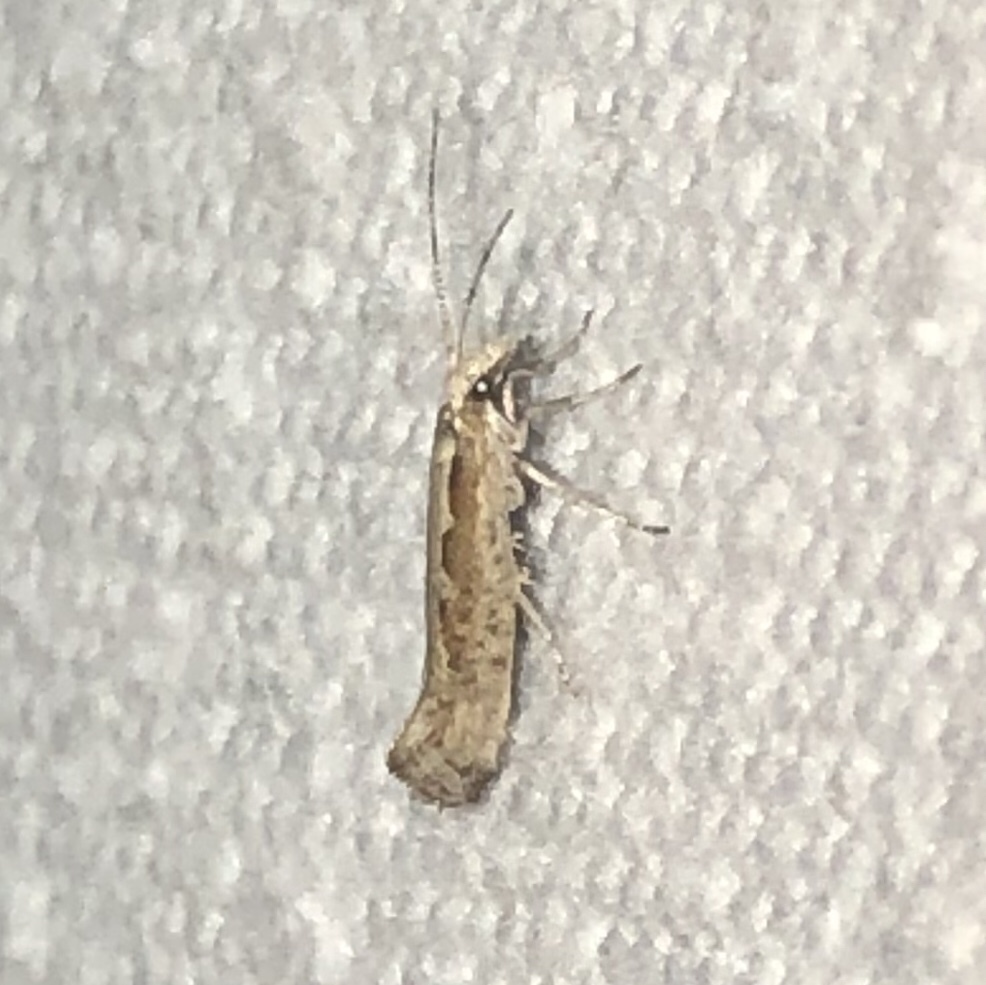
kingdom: Animalia
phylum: Arthropoda
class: Insecta
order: Lepidoptera
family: Plutellidae
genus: Plutella
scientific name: Plutella xylostella
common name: Diamond-back moth
